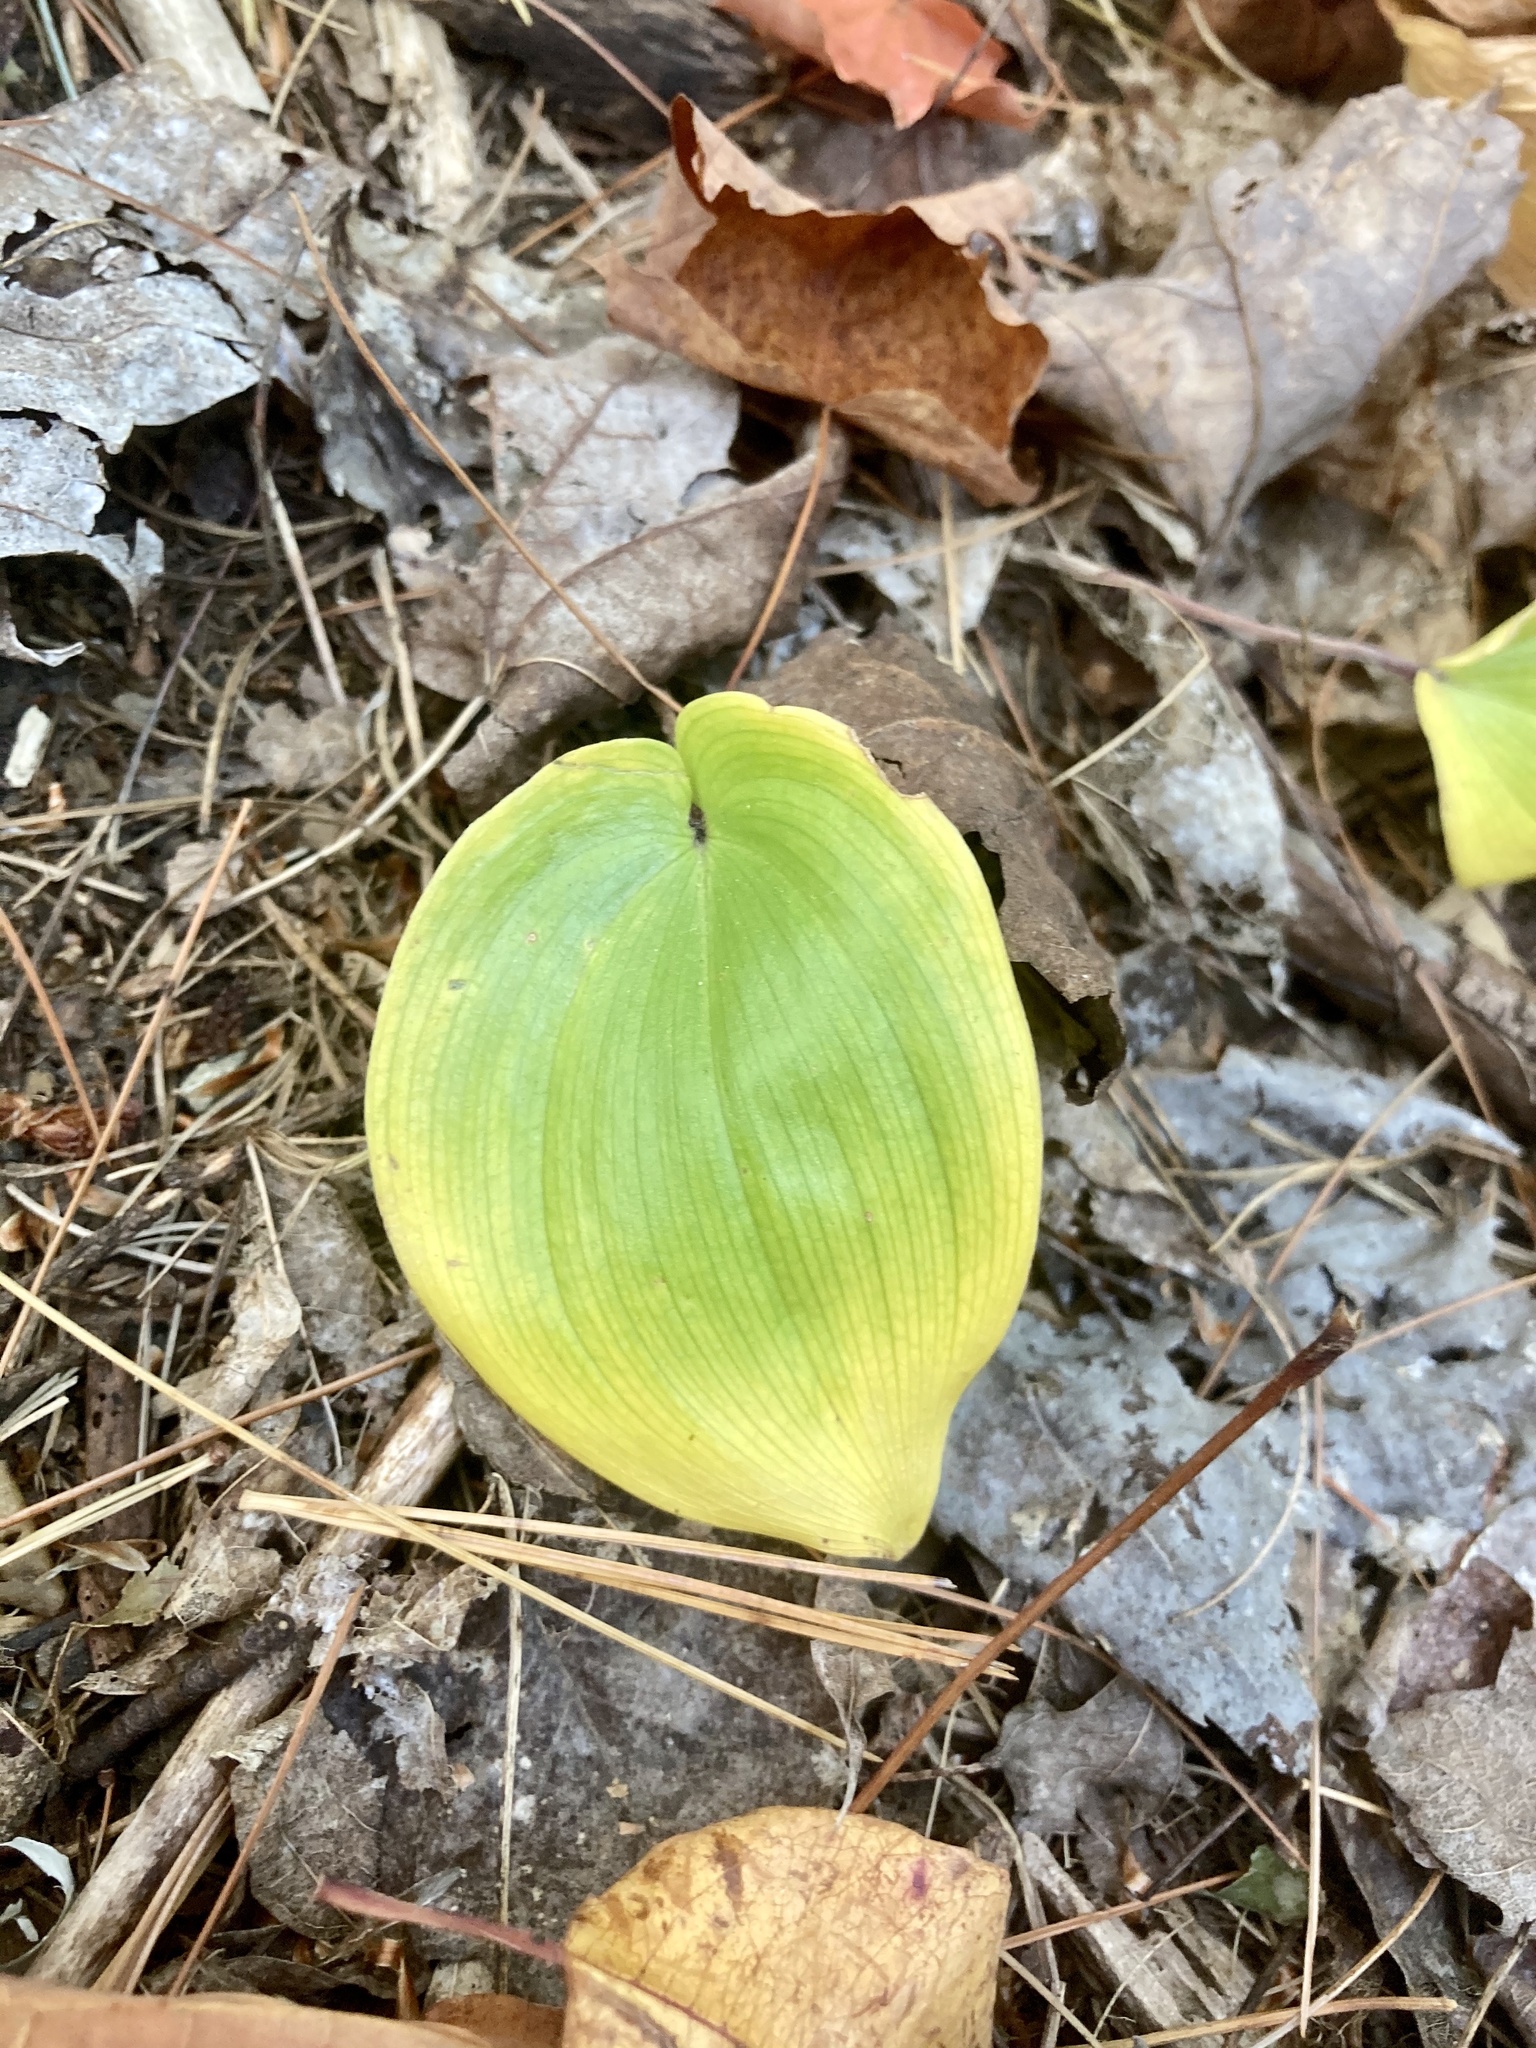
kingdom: Plantae
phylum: Tracheophyta
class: Liliopsida
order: Asparagales
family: Asparagaceae
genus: Maianthemum
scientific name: Maianthemum canadense
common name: False lily-of-the-valley
